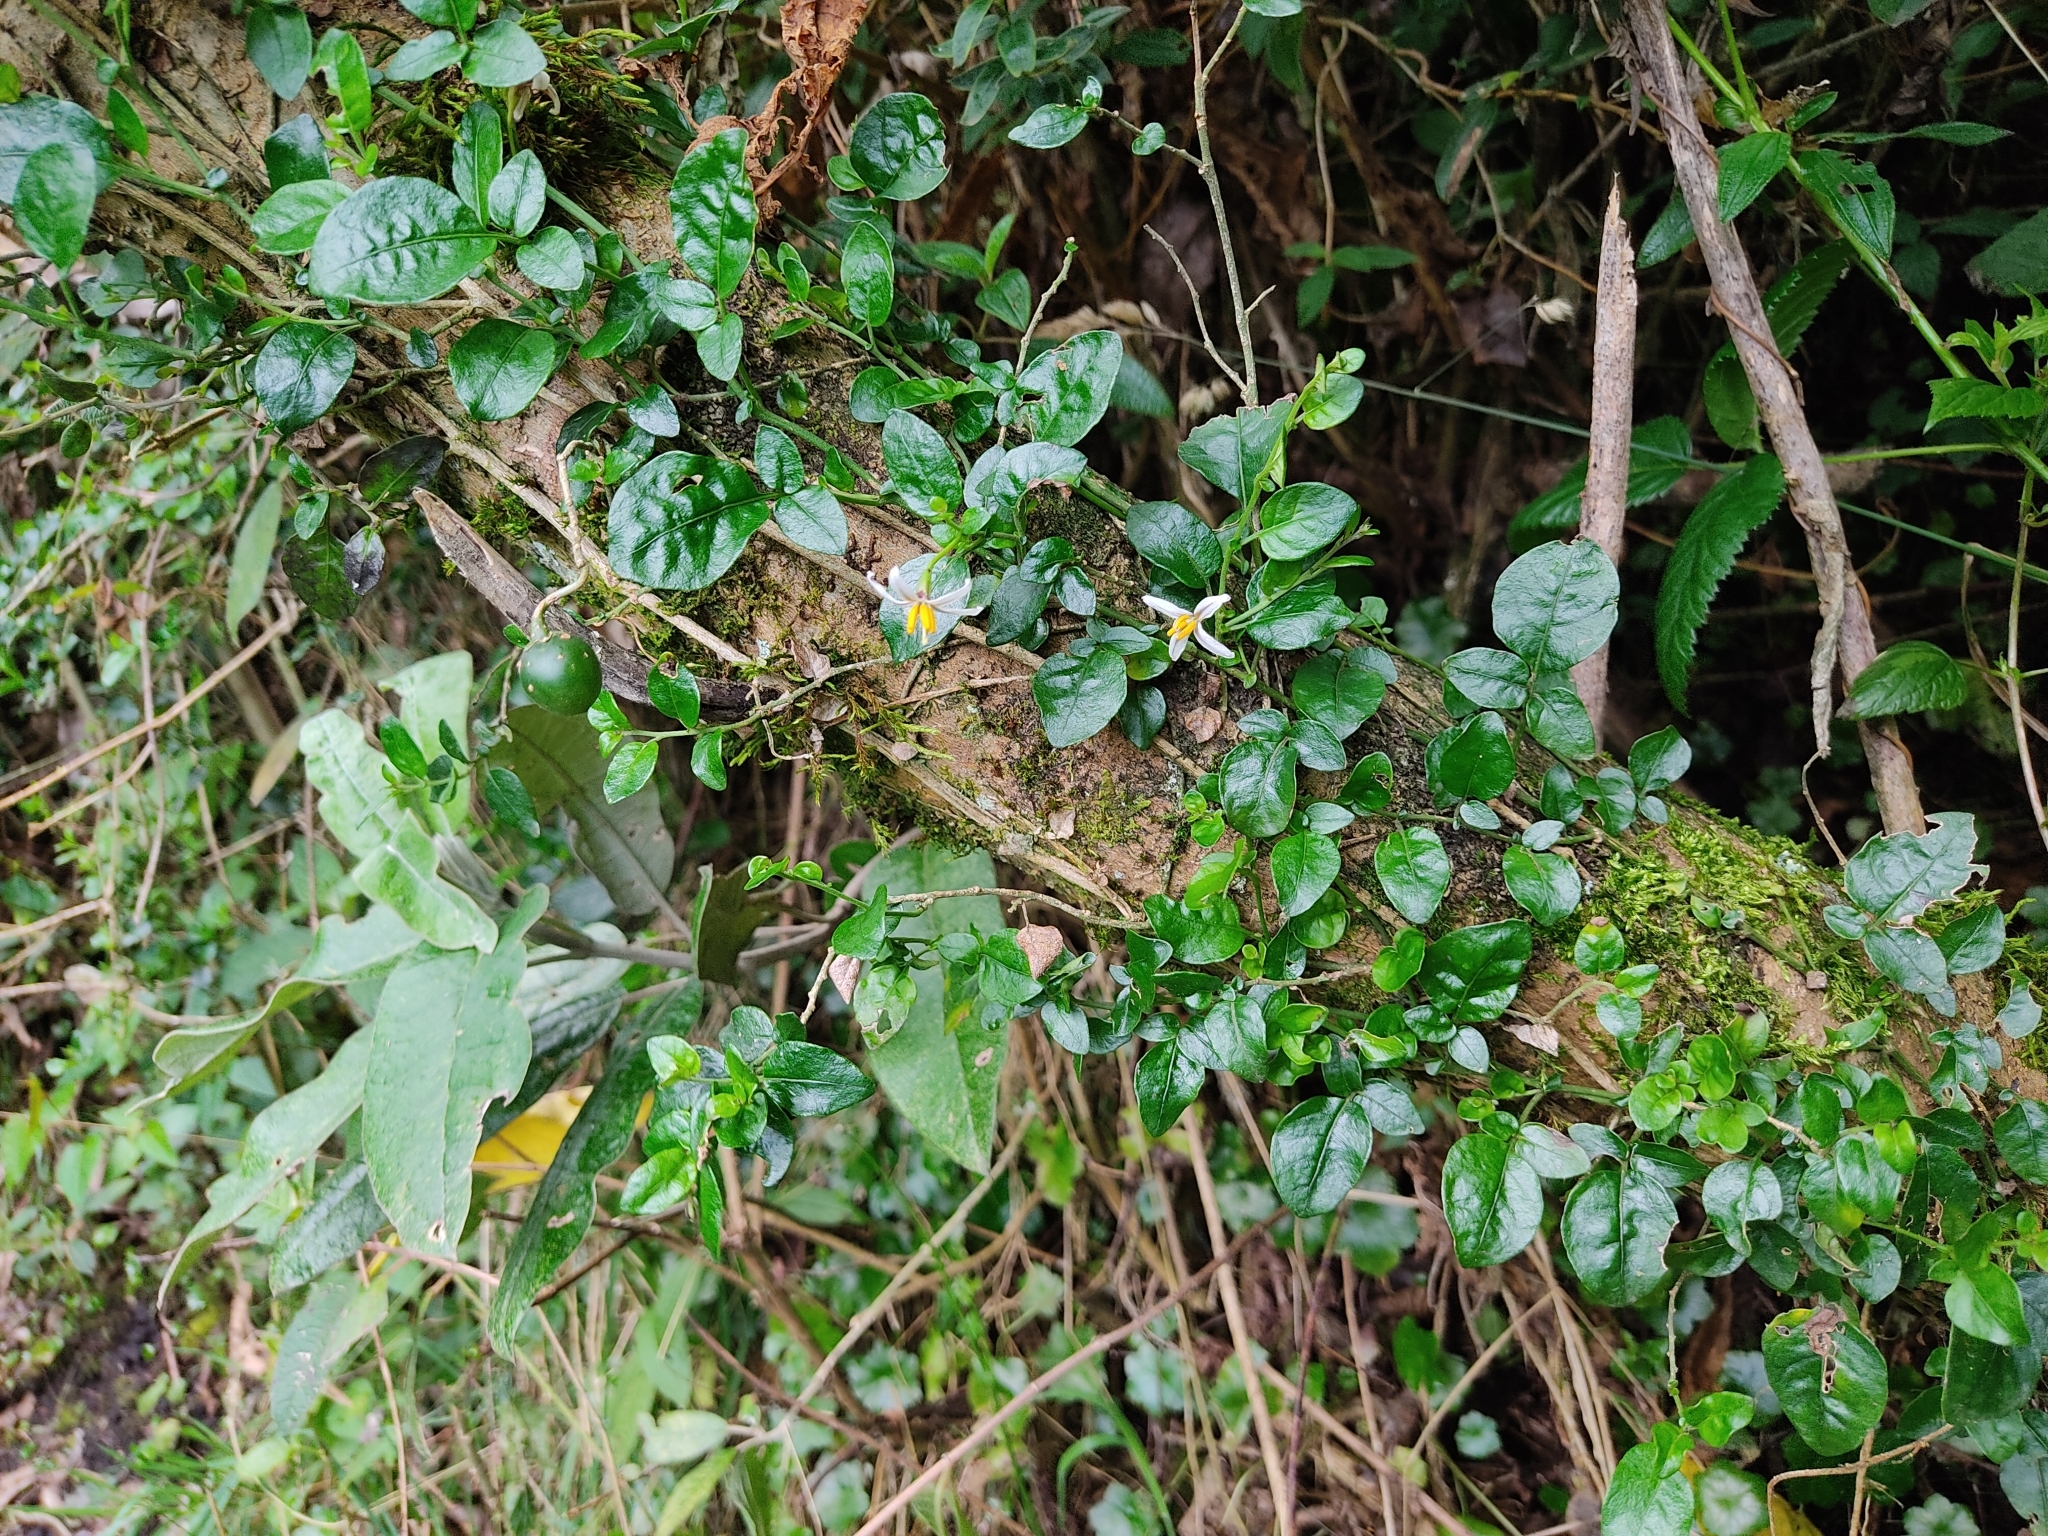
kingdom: Plantae
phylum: Tracheophyta
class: Magnoliopsida
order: Solanales
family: Solanaceae
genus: Solanum
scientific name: Solanum brevifolium
